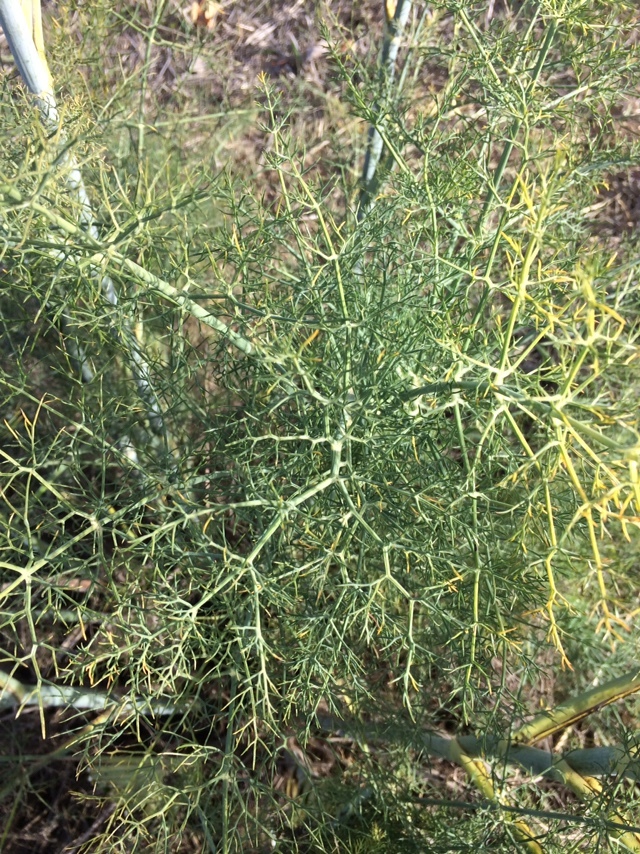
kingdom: Plantae
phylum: Tracheophyta
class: Magnoliopsida
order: Apiales
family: Apiaceae
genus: Foeniculum
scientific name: Foeniculum vulgare
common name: Fennel
